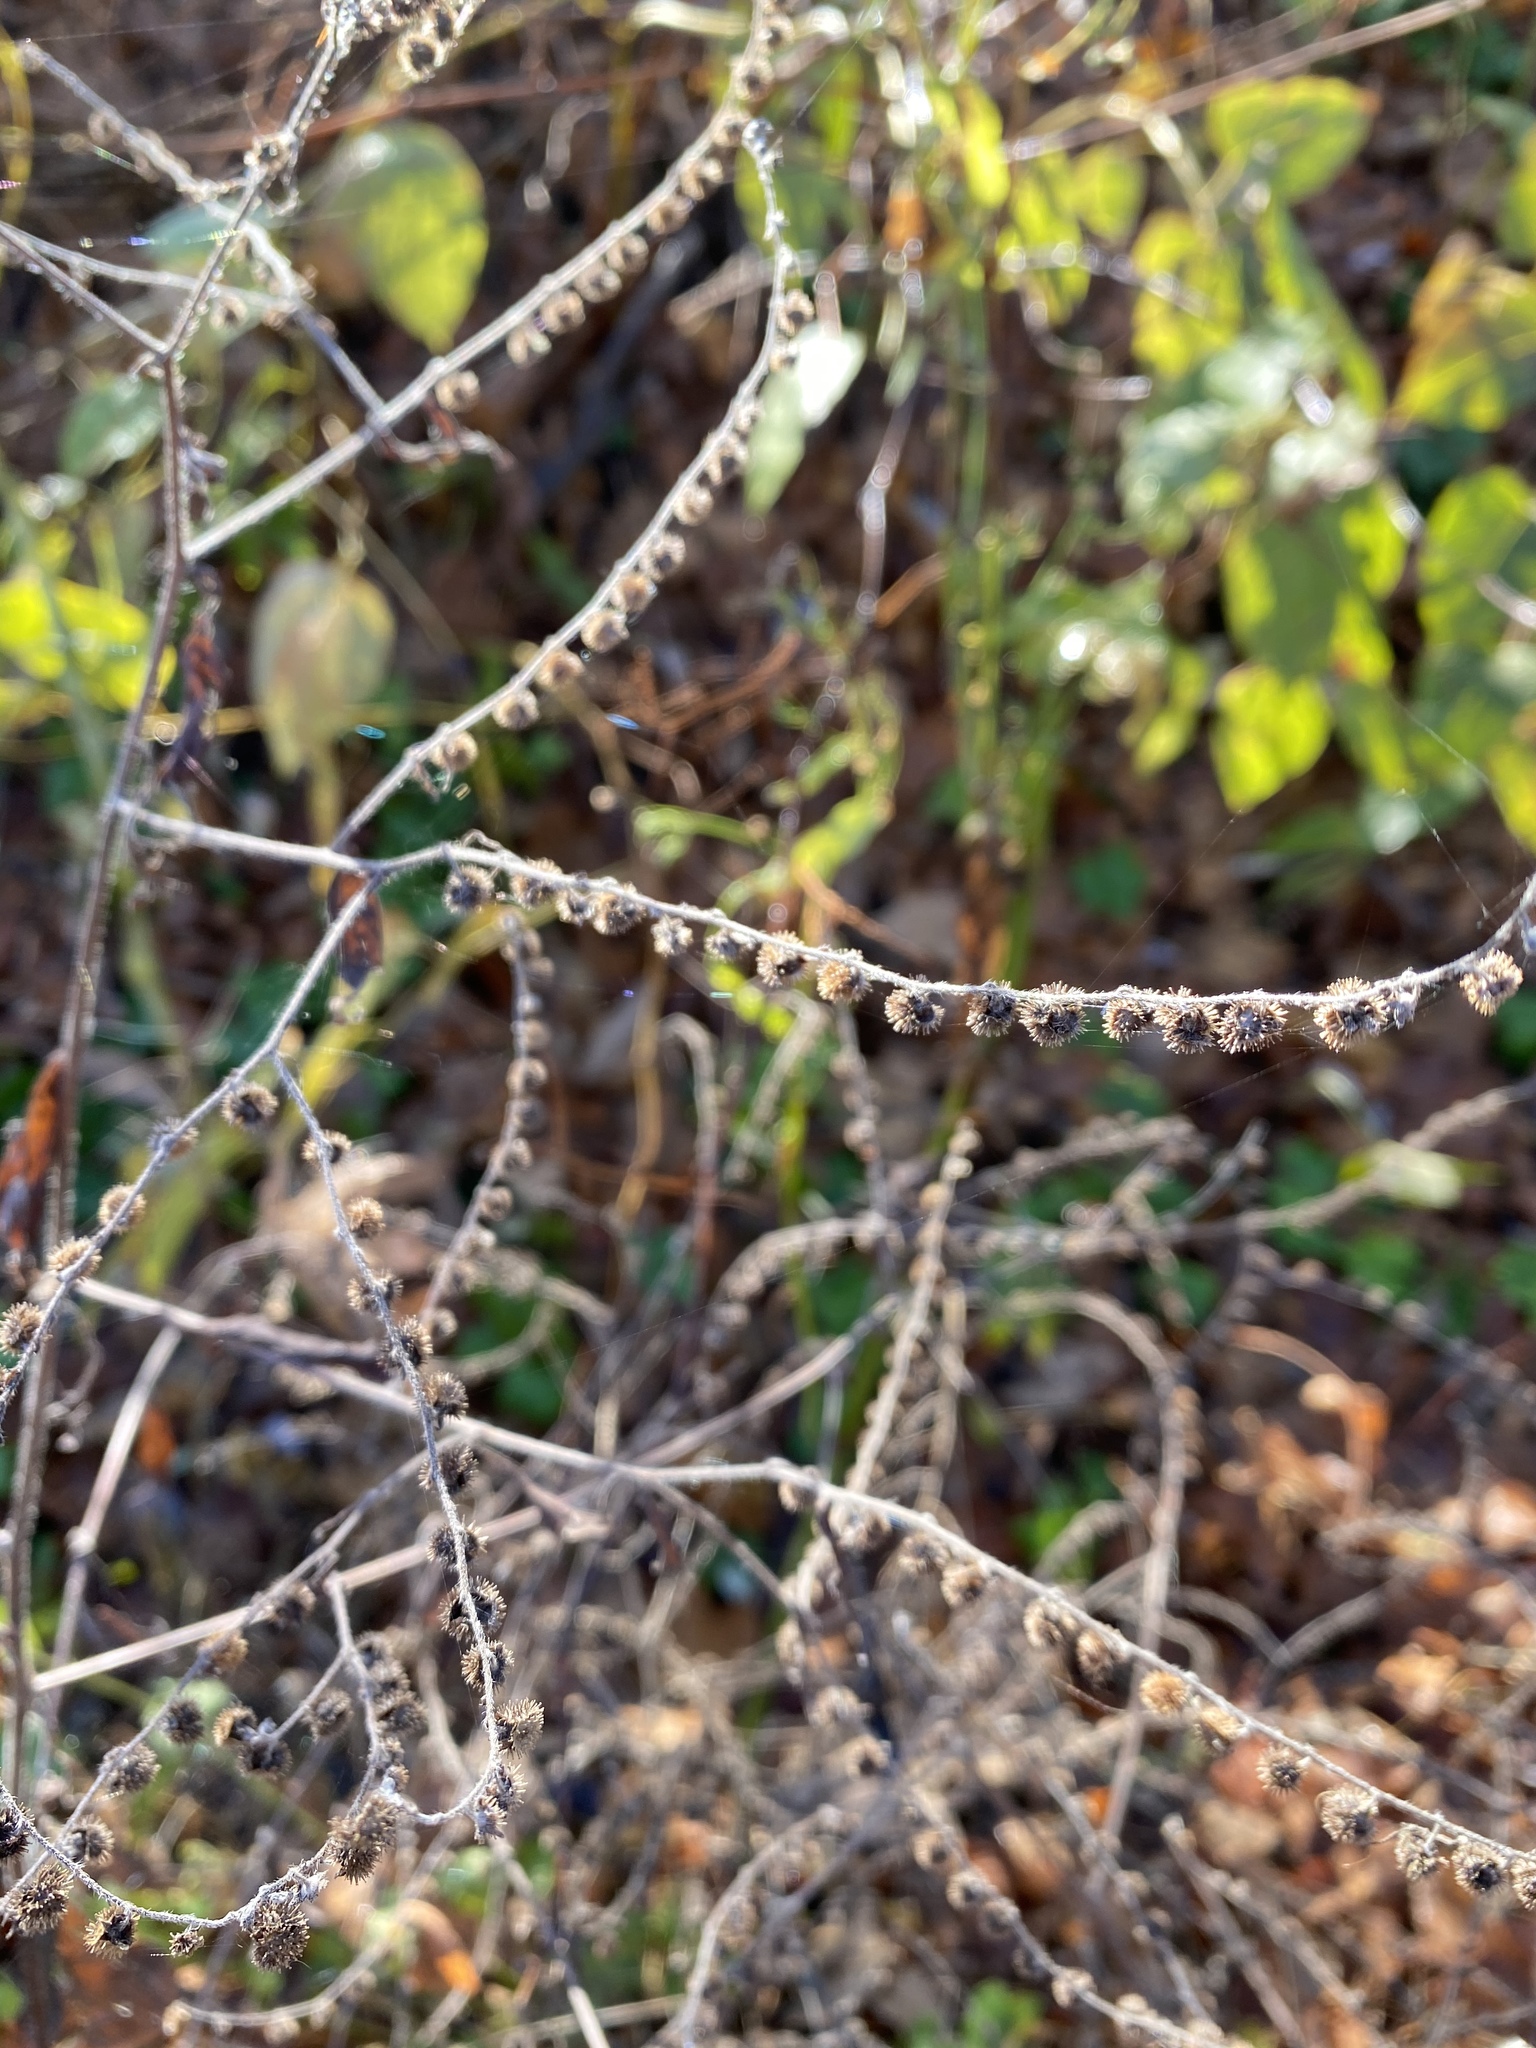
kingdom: Plantae
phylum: Tracheophyta
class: Magnoliopsida
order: Boraginales
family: Boraginaceae
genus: Hackelia
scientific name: Hackelia virginiana
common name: Beggar's-lice
